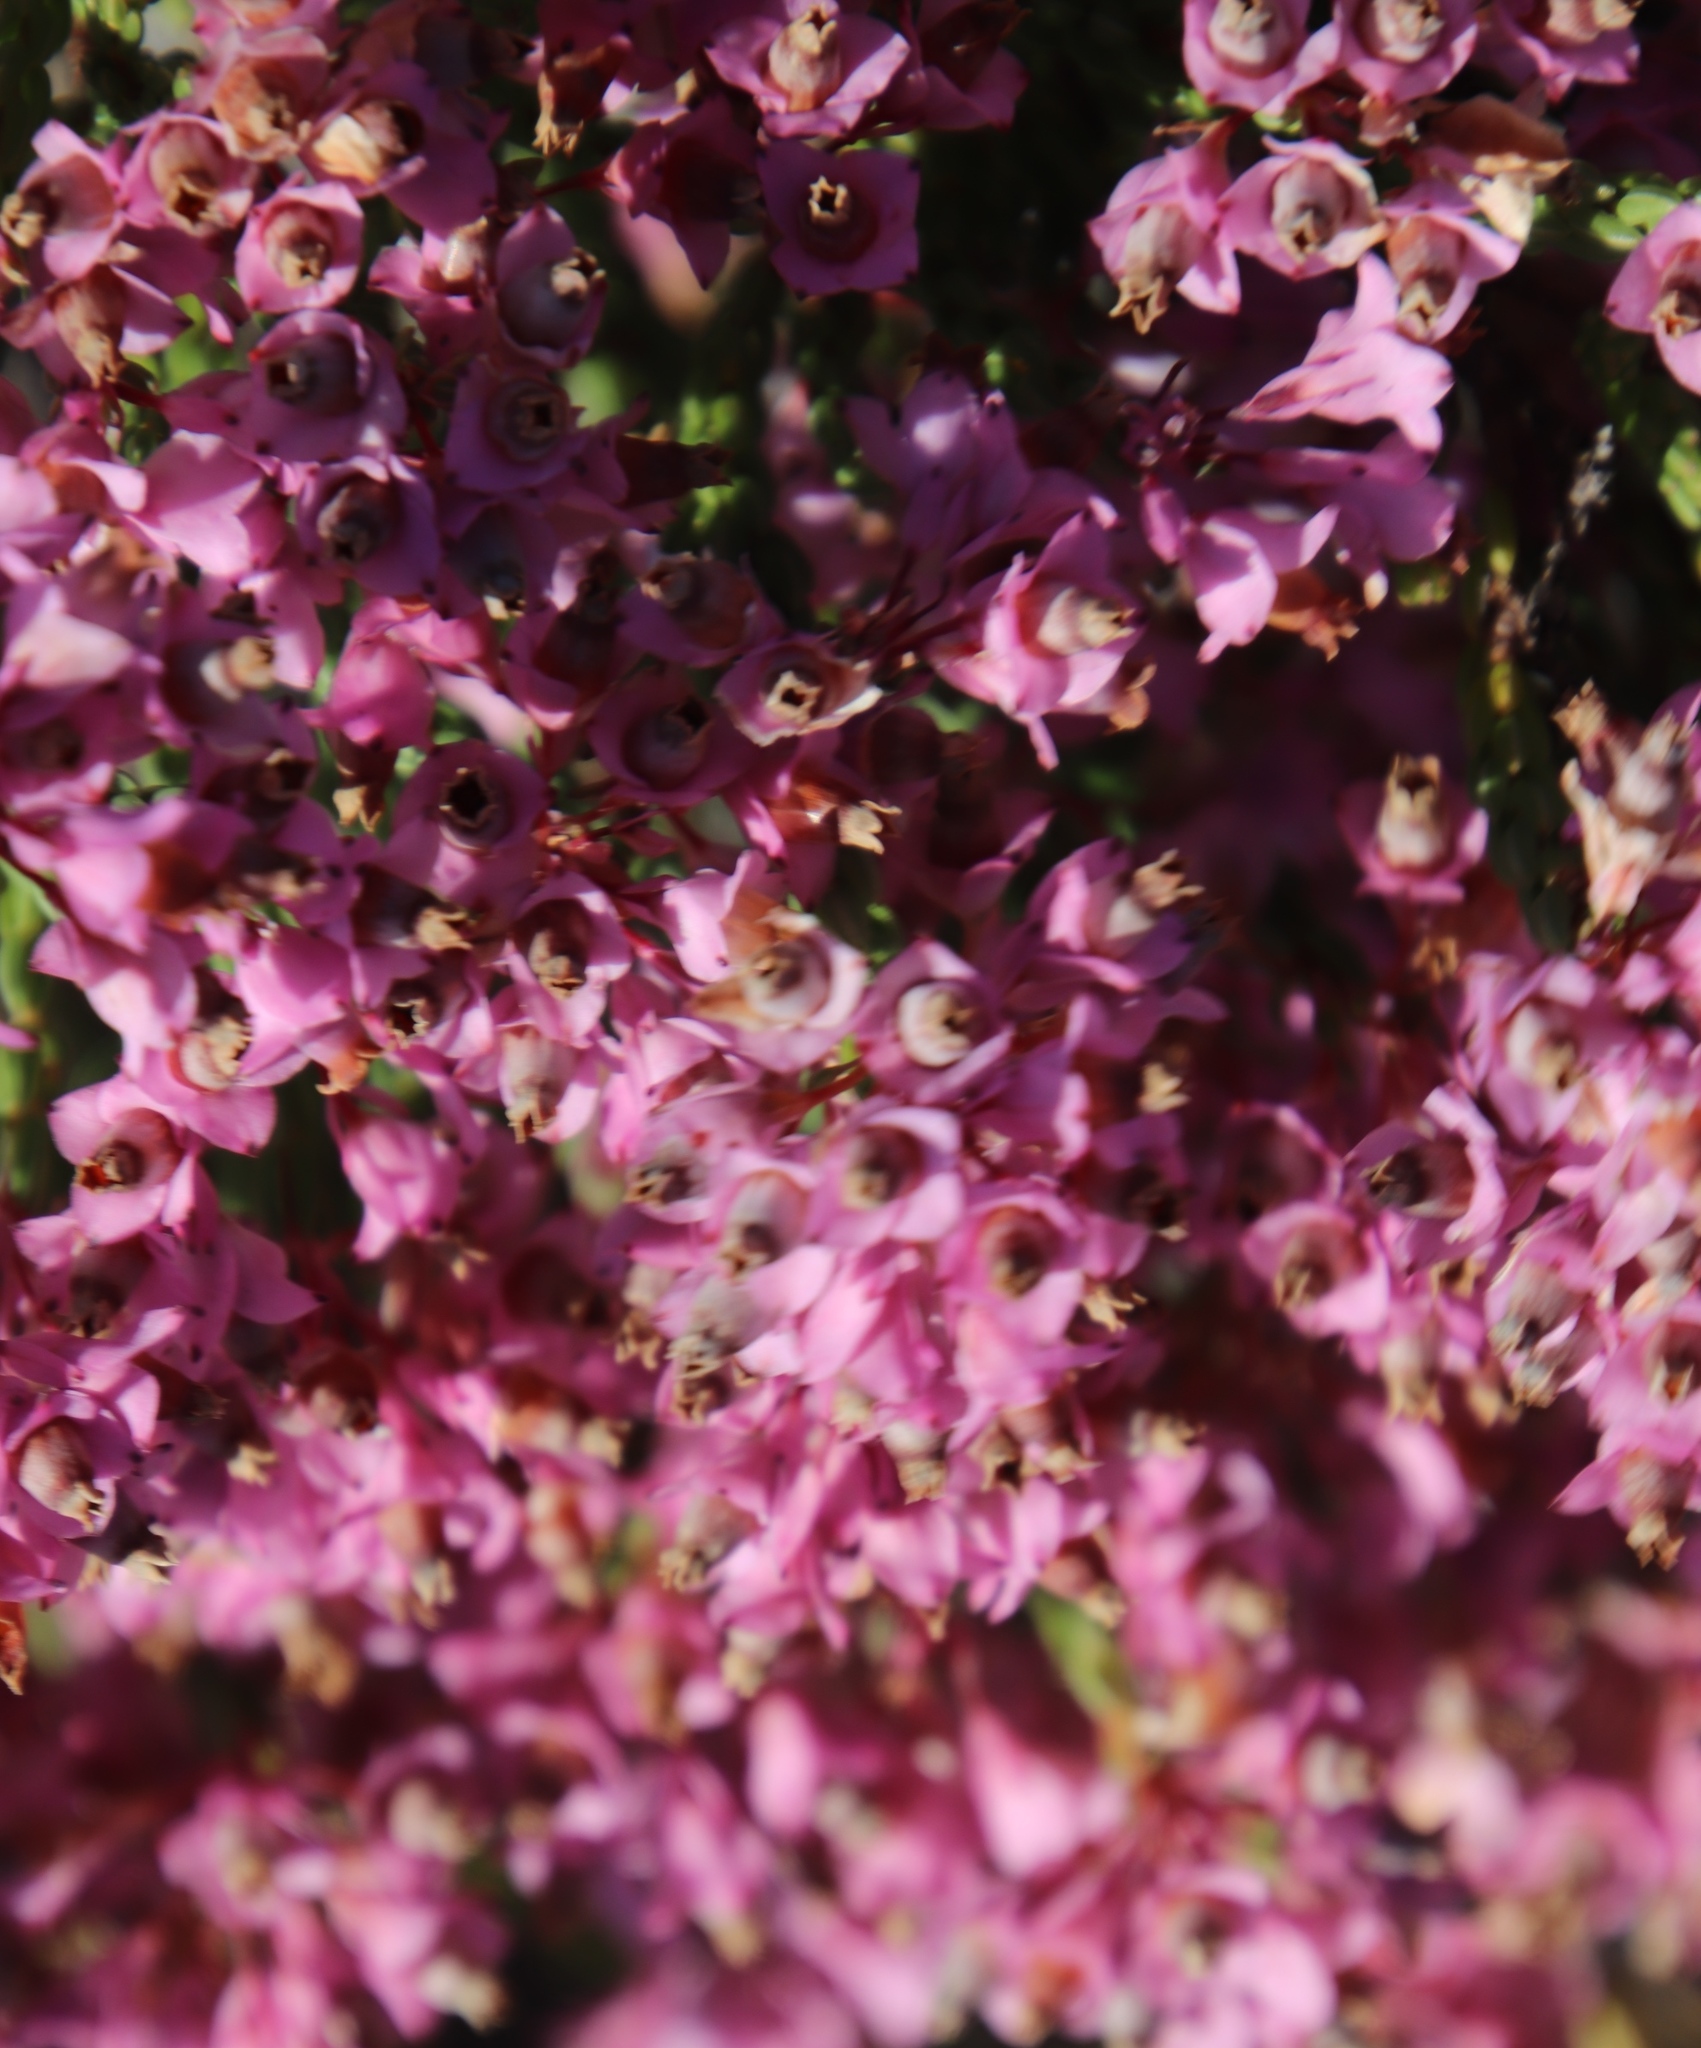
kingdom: Plantae
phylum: Tracheophyta
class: Magnoliopsida
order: Ericales
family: Ericaceae
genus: Erica
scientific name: Erica corifolia
